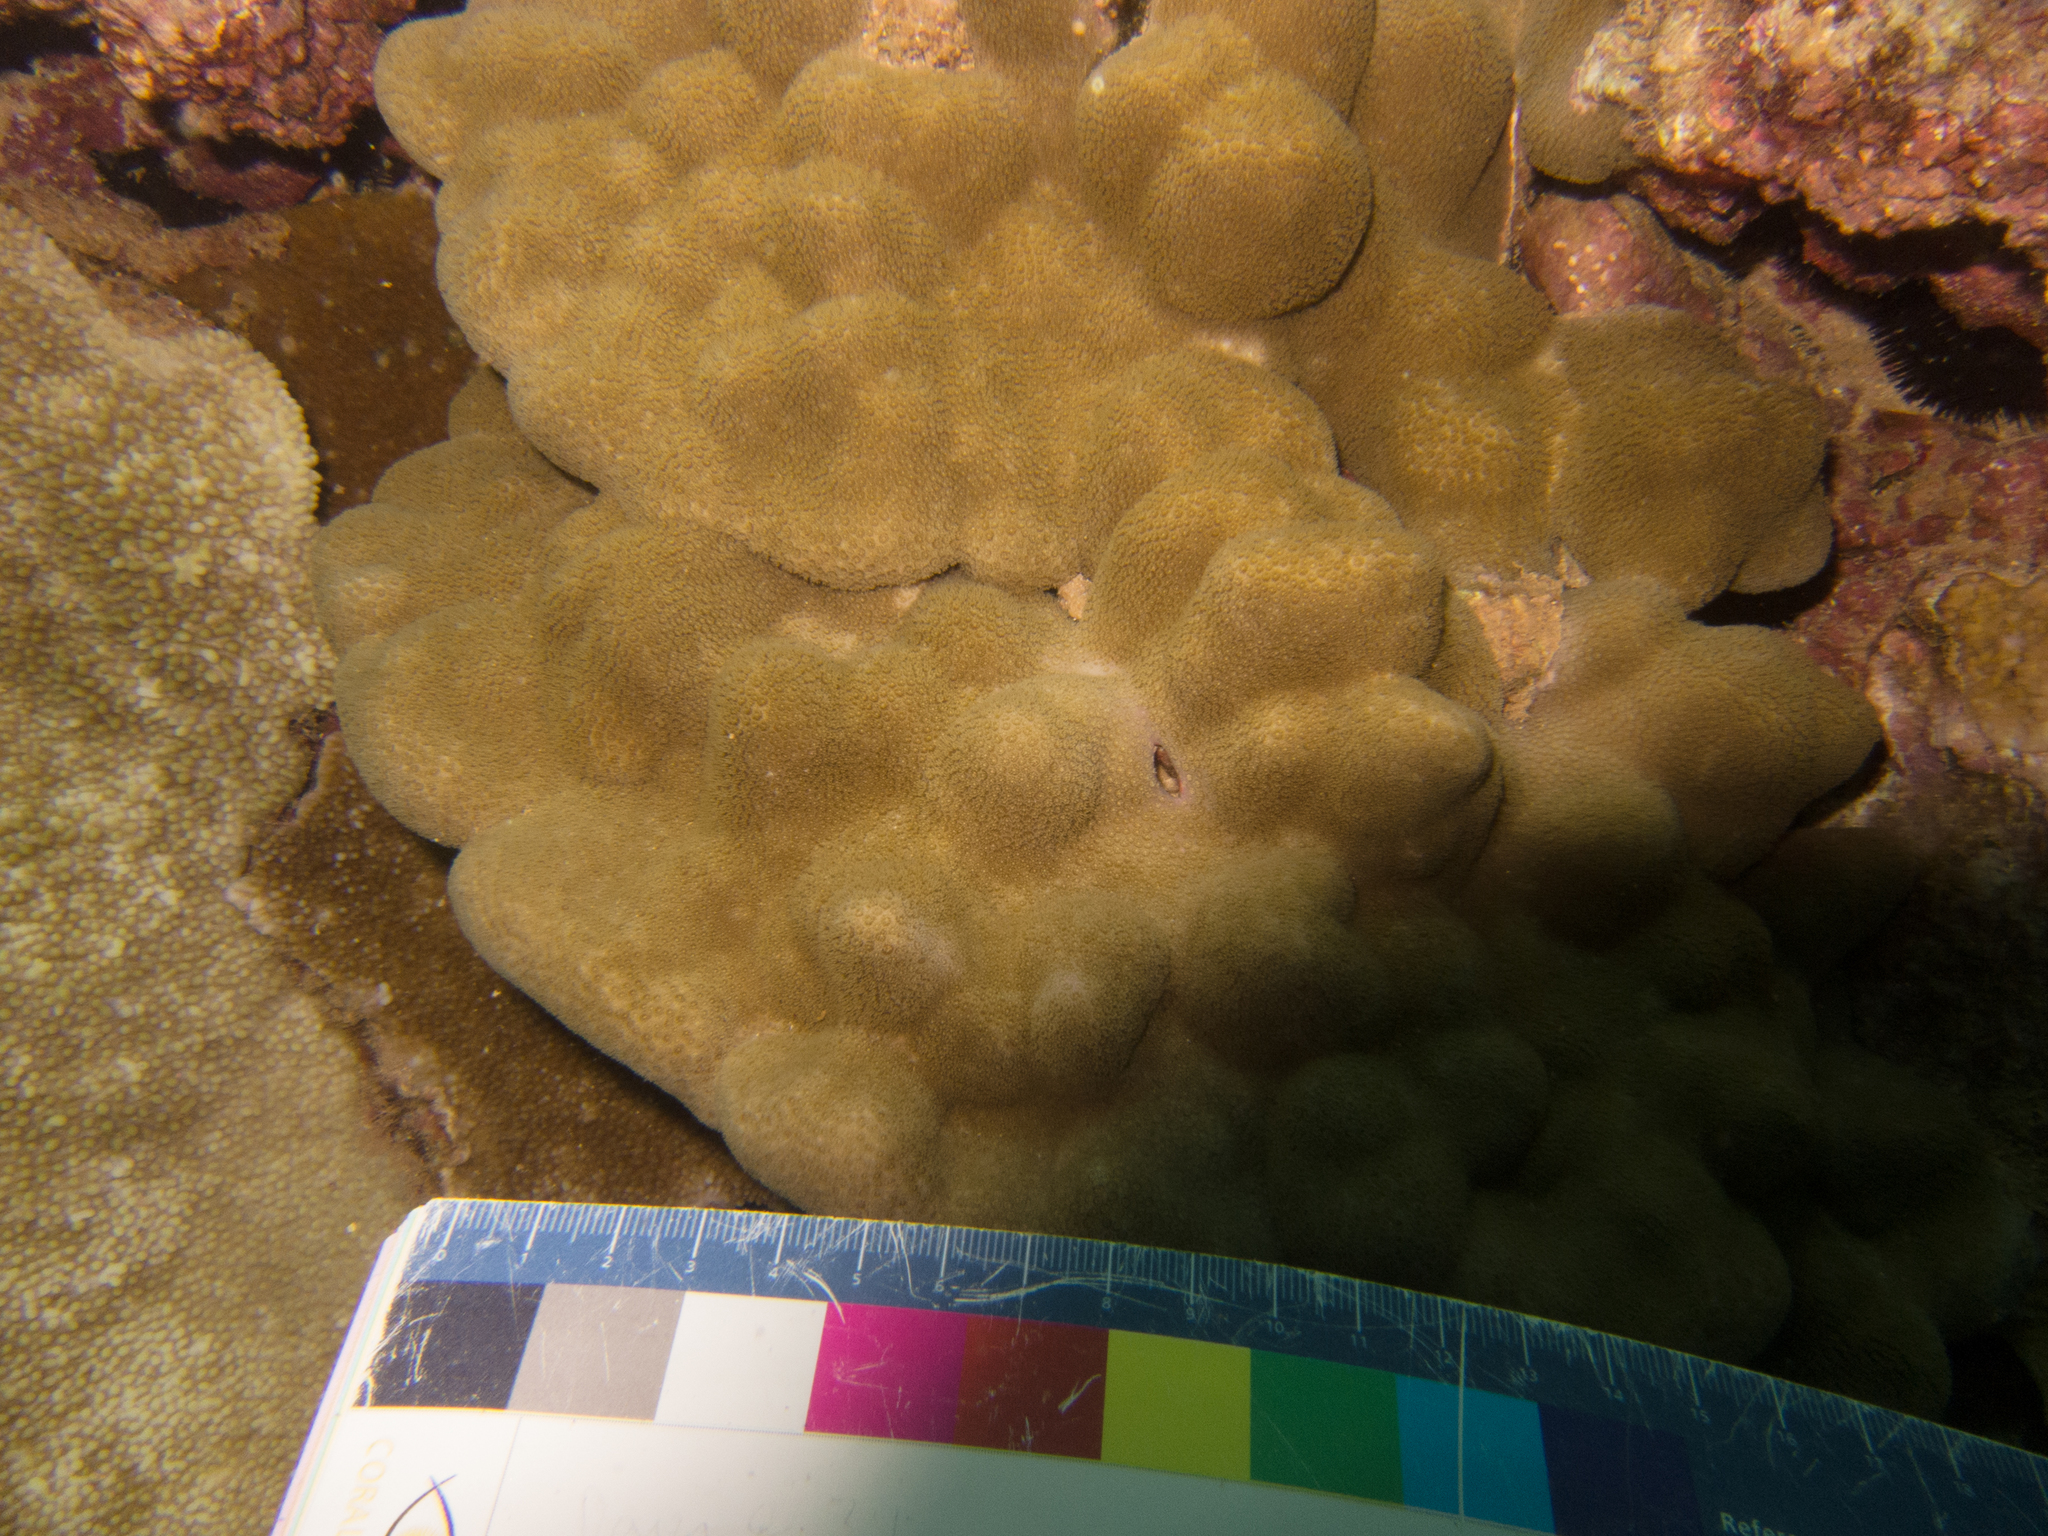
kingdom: Animalia
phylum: Cnidaria
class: Anthozoa
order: Scleractinia
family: Poritidae
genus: Porites
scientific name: Porites evermanni
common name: Hump coral
